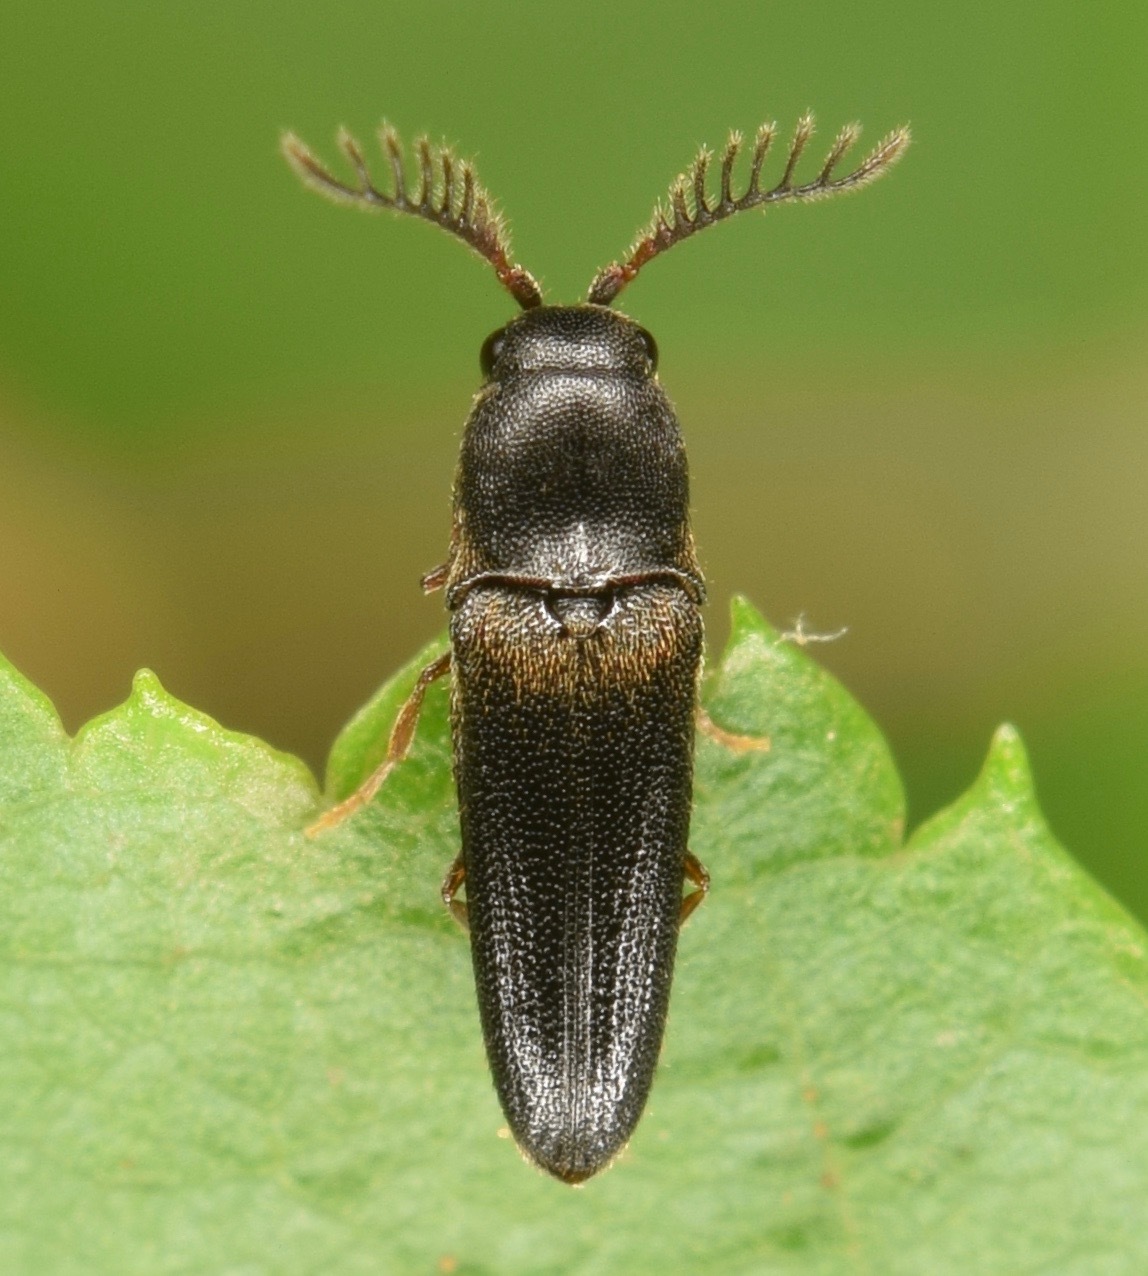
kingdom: Animalia
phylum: Arthropoda
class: Insecta
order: Coleoptera
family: Eucnemidae
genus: Deltometopus
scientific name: Deltometopus amoenicornis
